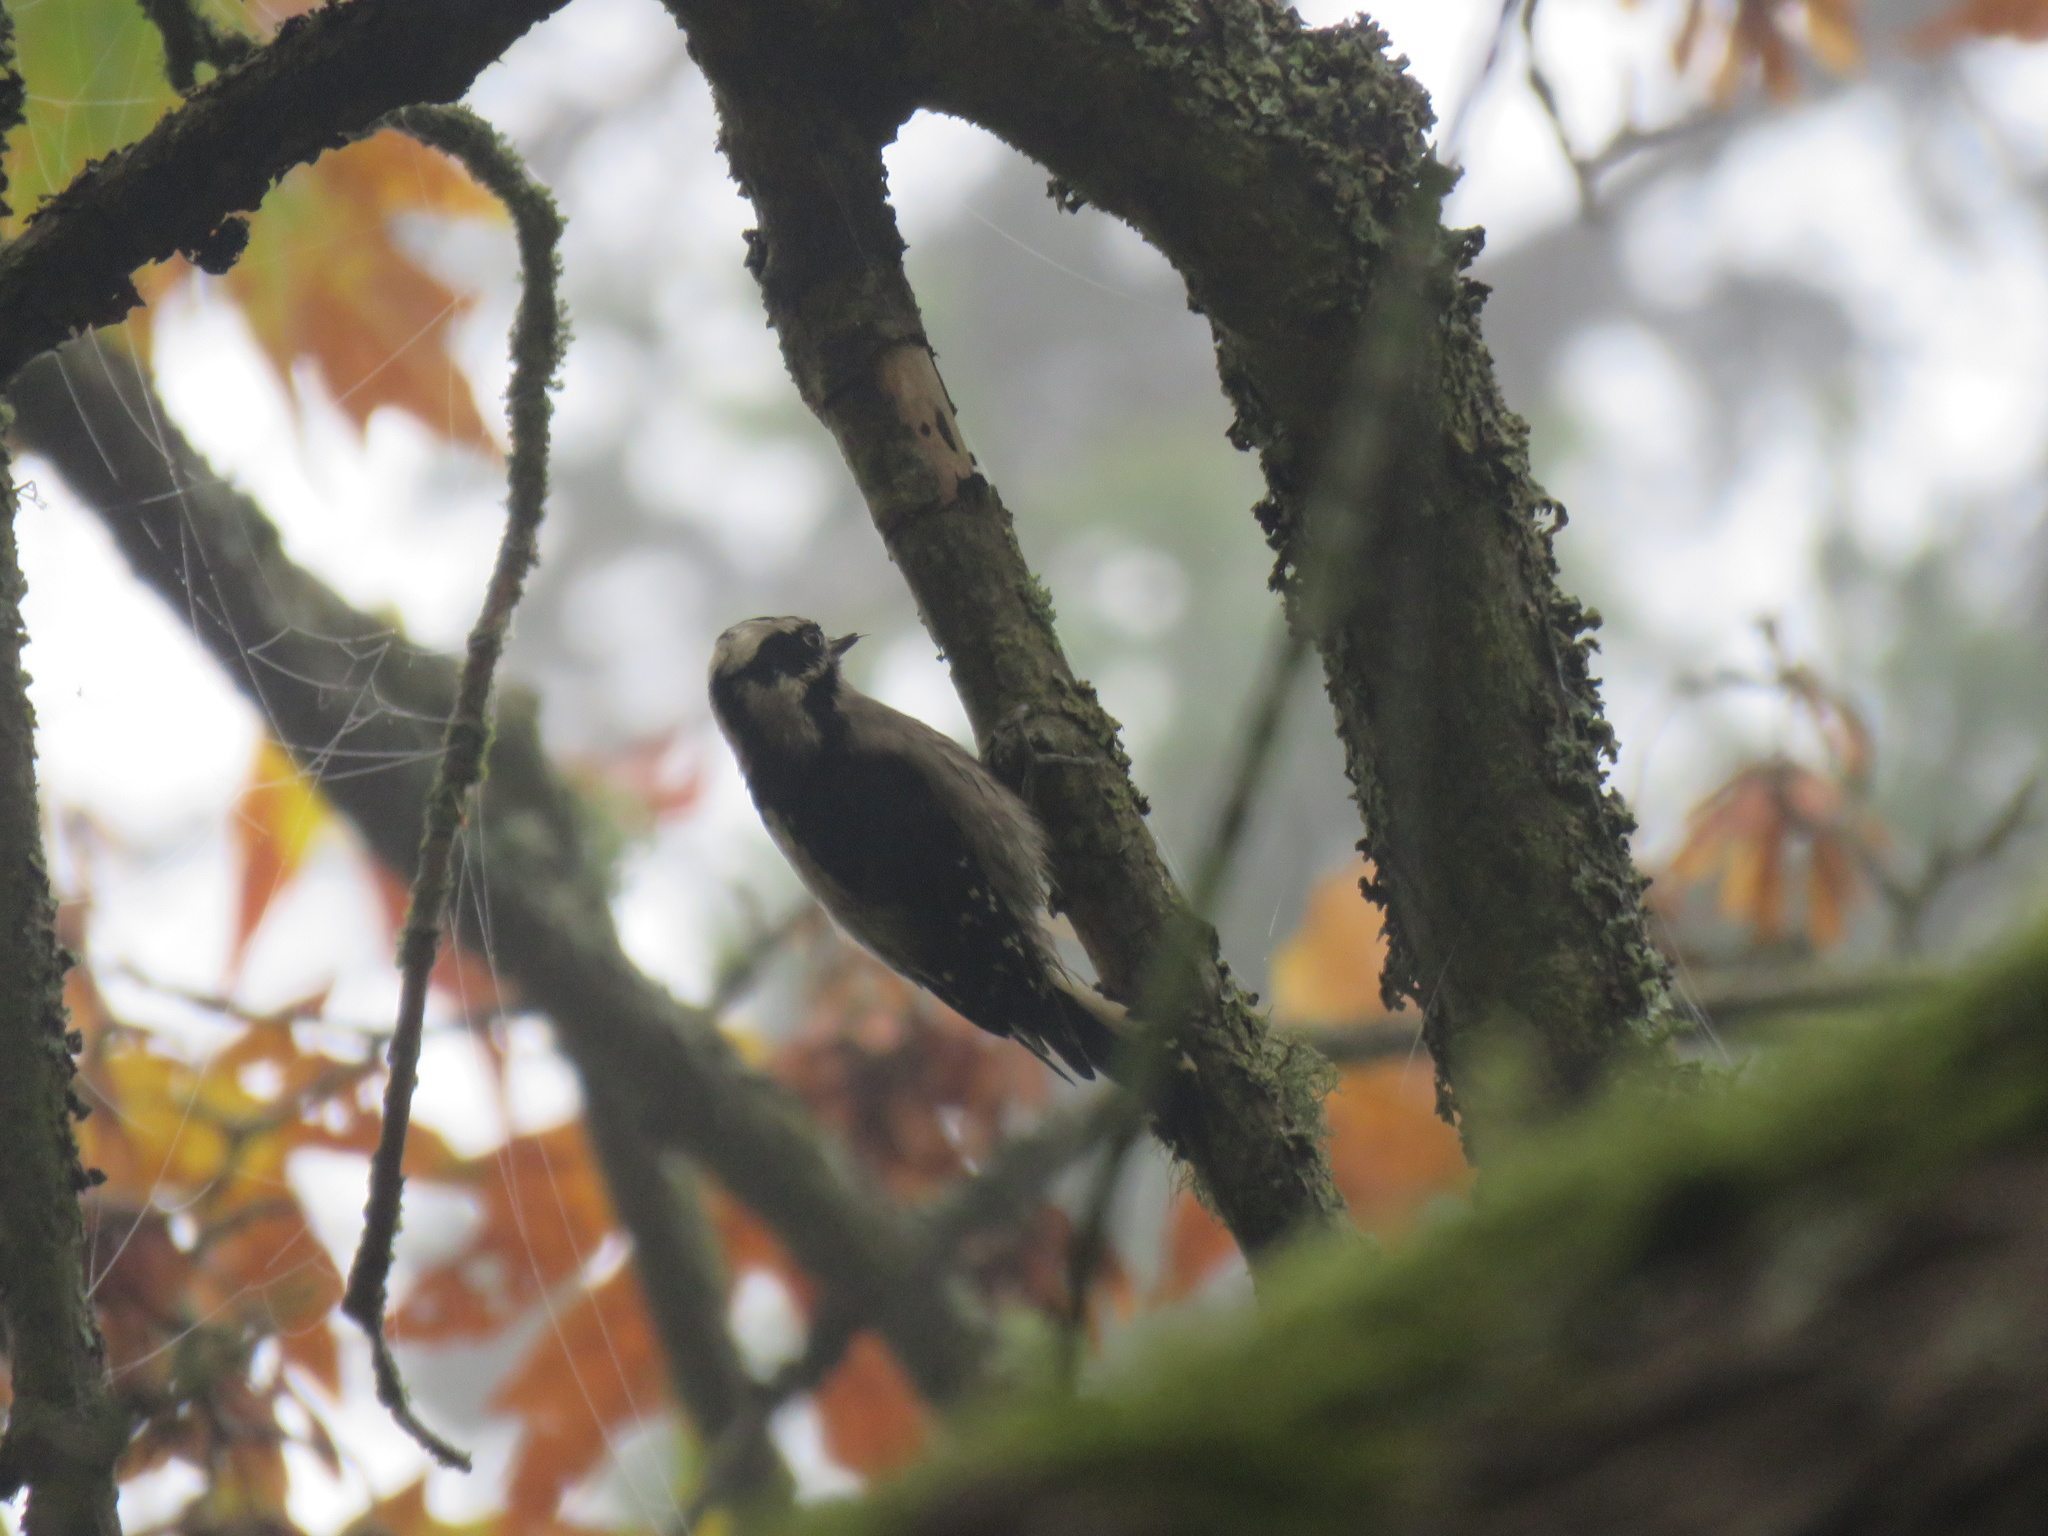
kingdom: Animalia
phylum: Chordata
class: Aves
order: Piciformes
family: Picidae
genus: Dryobates
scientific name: Dryobates pubescens
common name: Downy woodpecker
